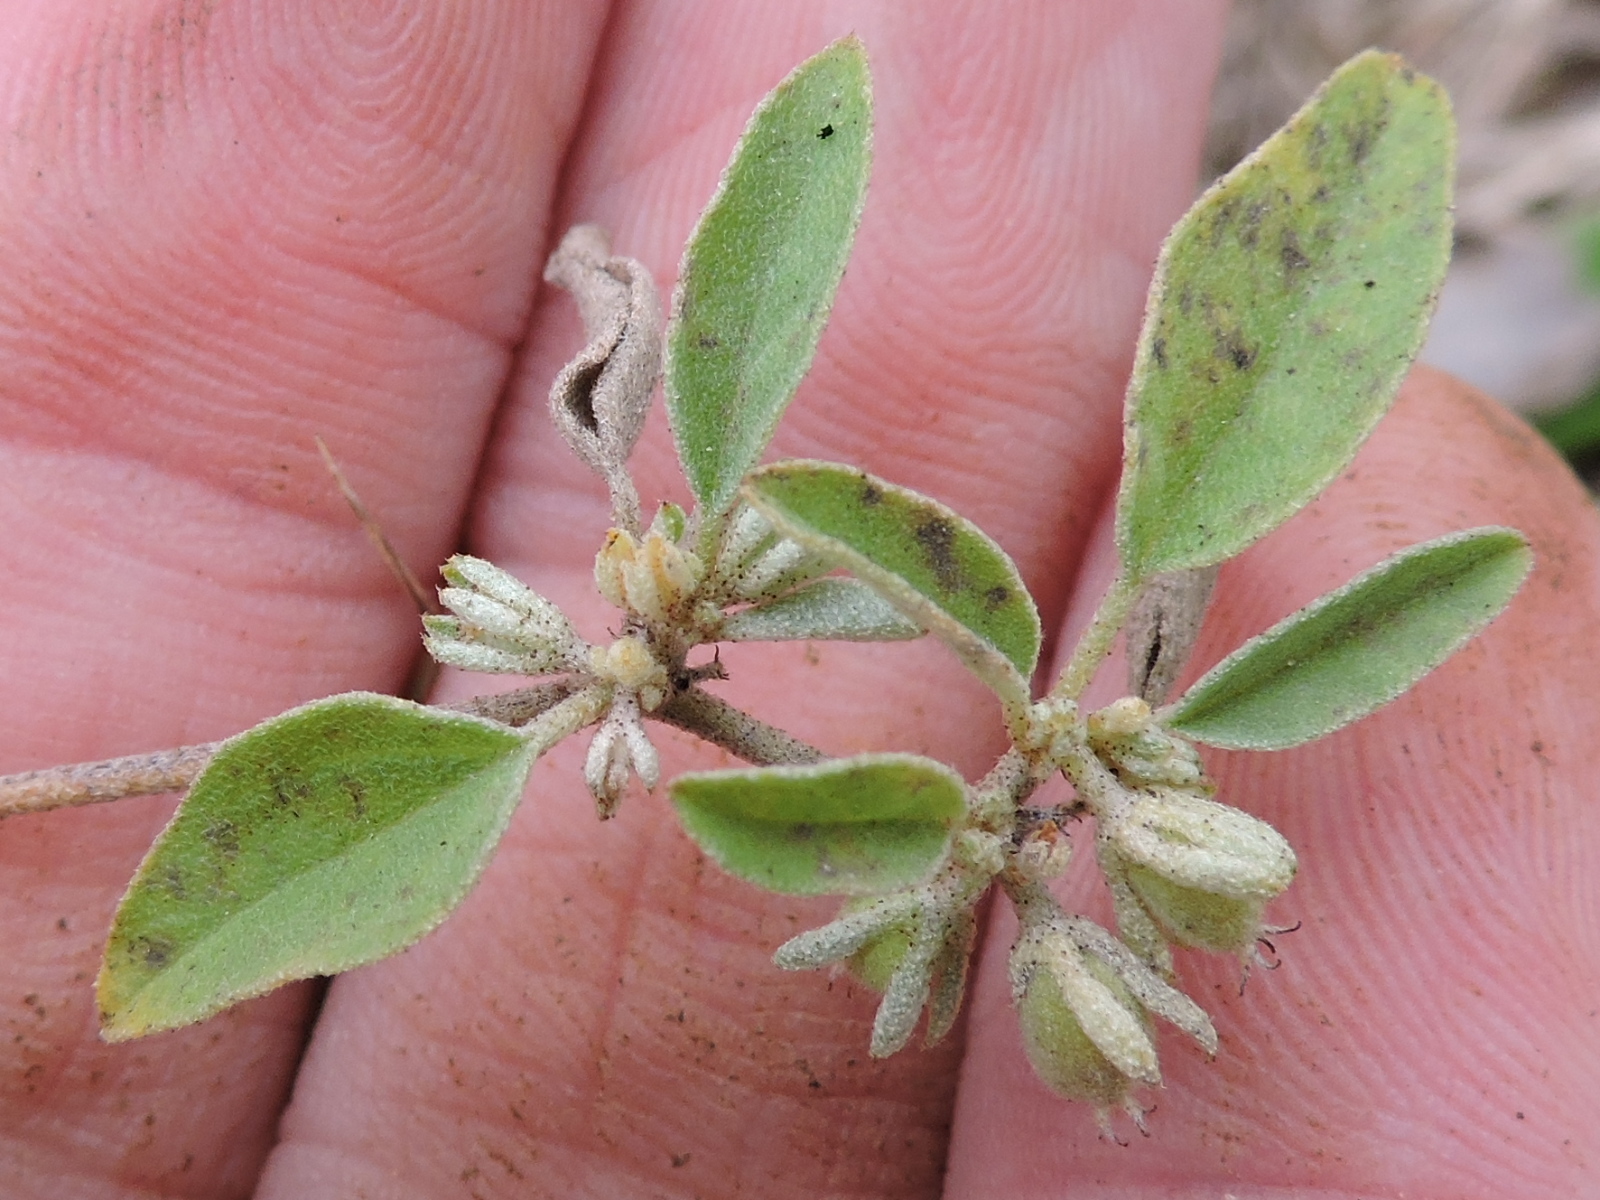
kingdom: Plantae
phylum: Tracheophyta
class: Magnoliopsida
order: Malpighiales
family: Euphorbiaceae
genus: Croton
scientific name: Croton monanthogynus
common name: One-seed croton
